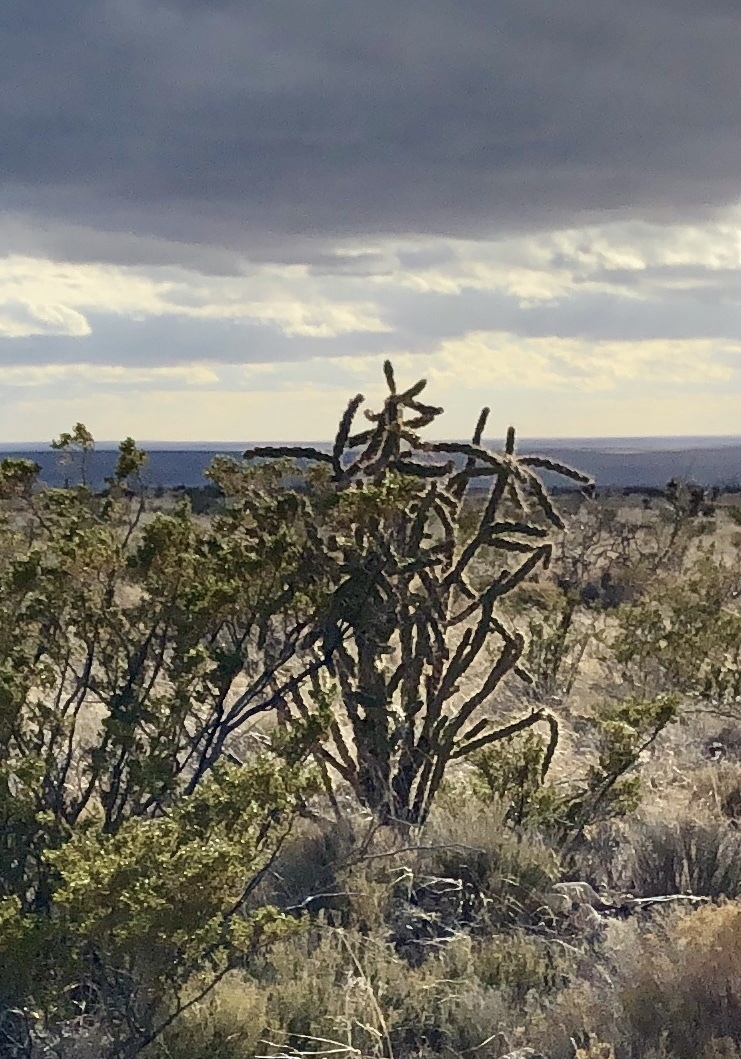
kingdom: Plantae
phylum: Tracheophyta
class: Magnoliopsida
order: Caryophyllales
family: Cactaceae
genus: Cylindropuntia
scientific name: Cylindropuntia imbricata
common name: Candelabrum cactus
